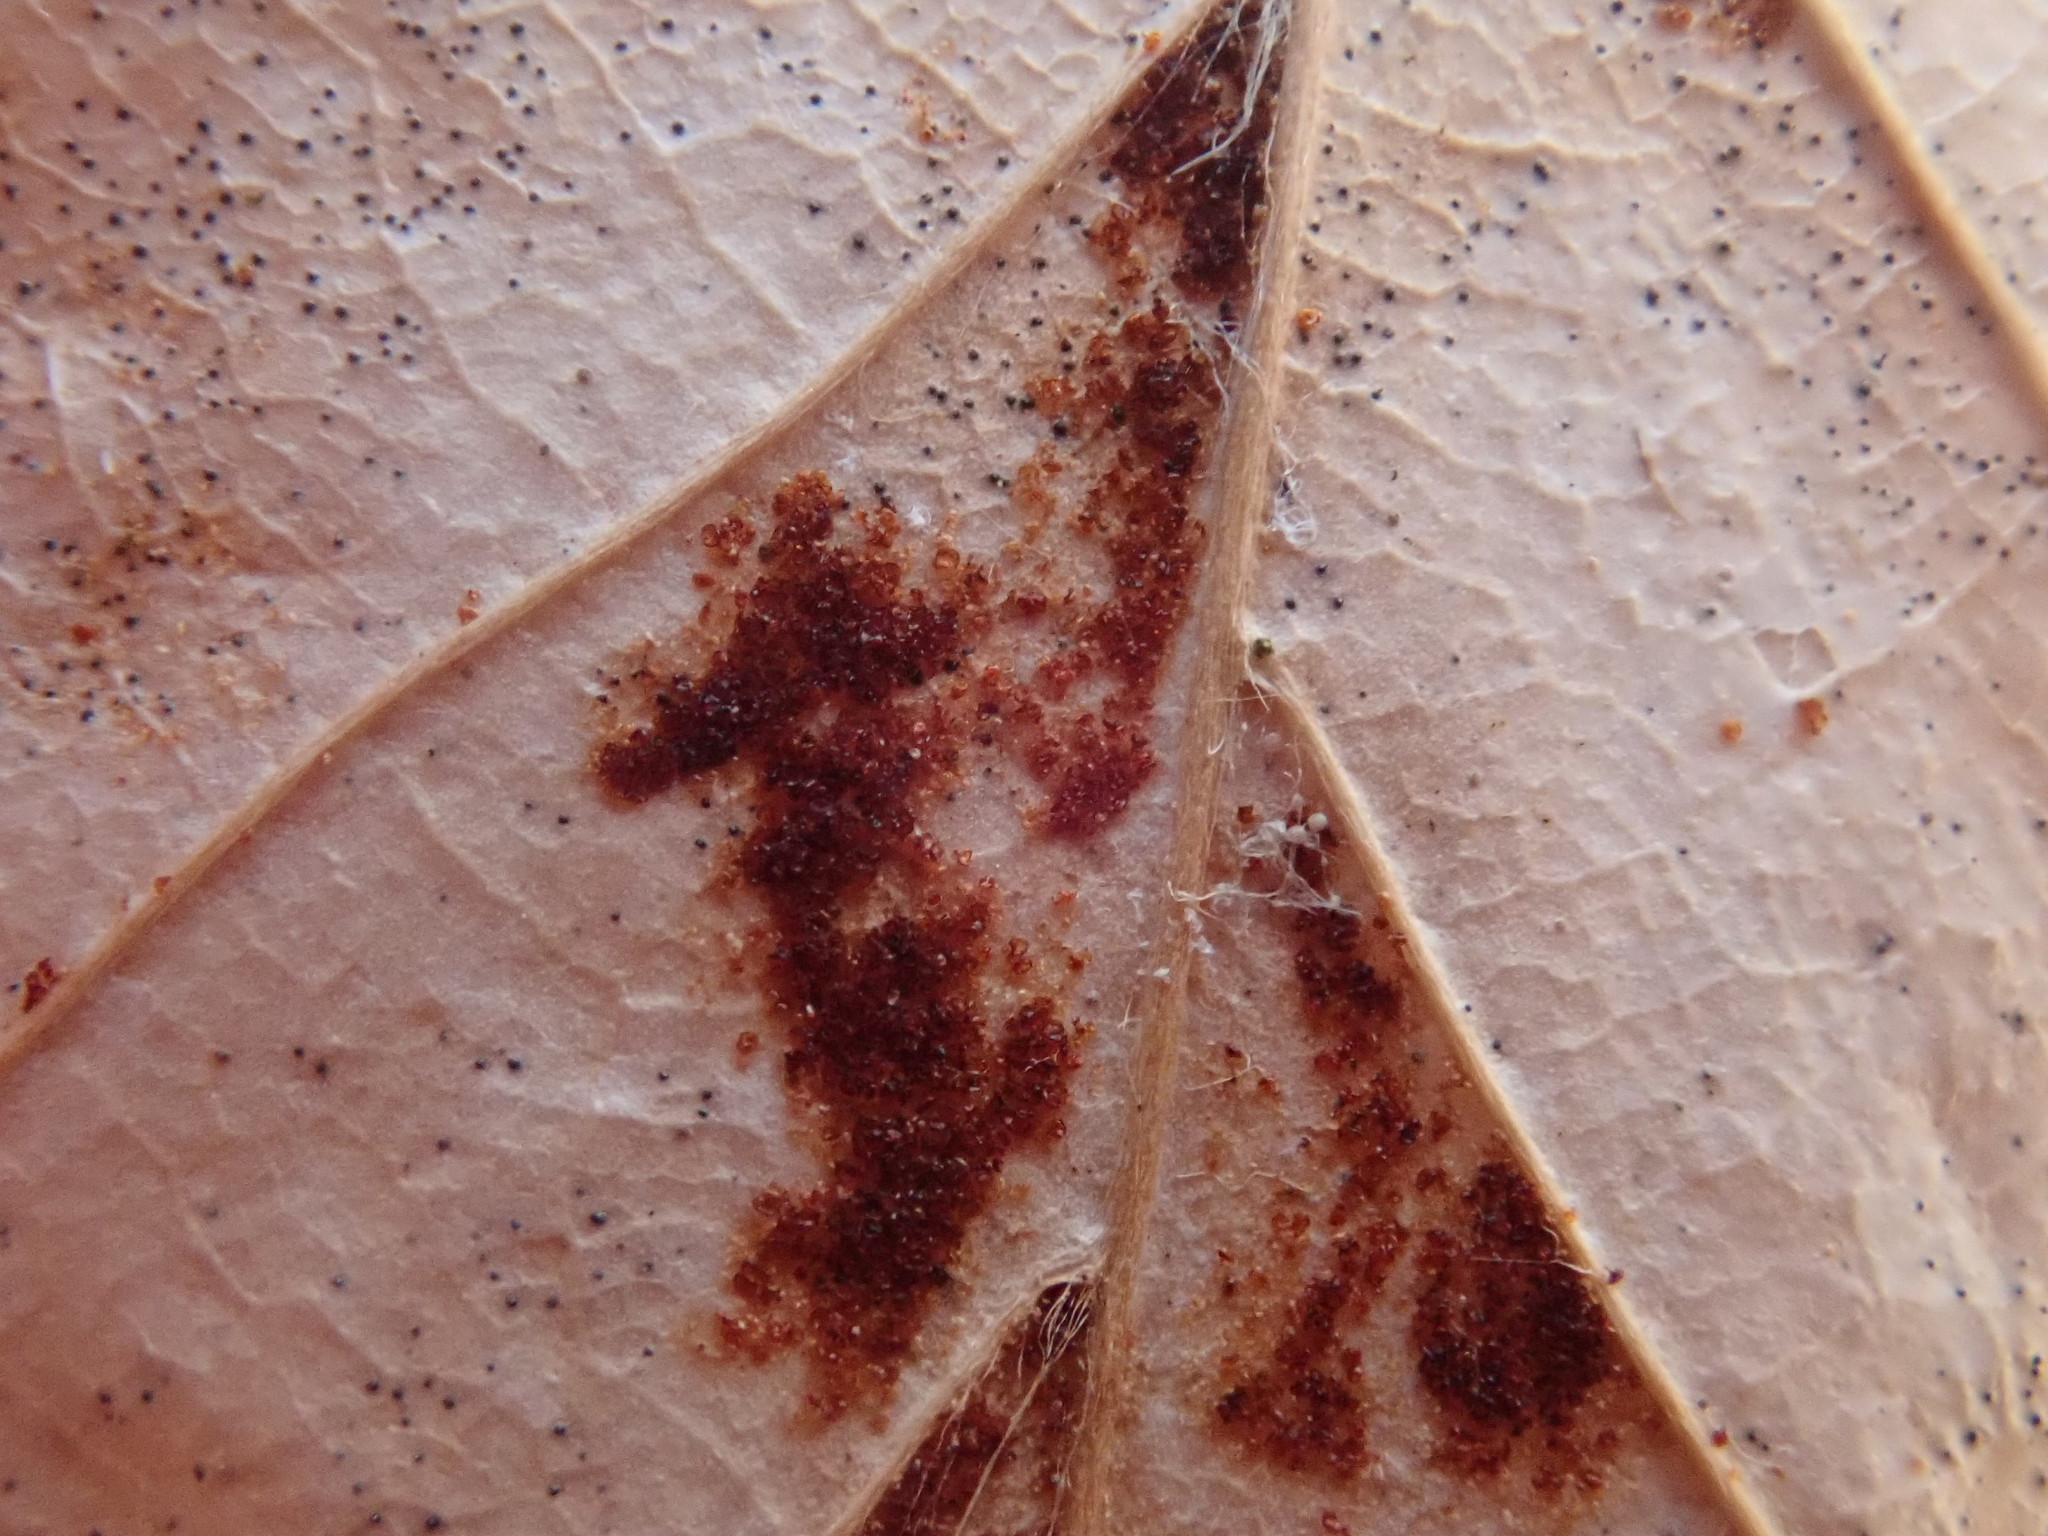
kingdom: Animalia
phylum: Arthropoda
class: Arachnida
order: Trombidiformes
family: Eriophyidae
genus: Acalitus
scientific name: Acalitus
